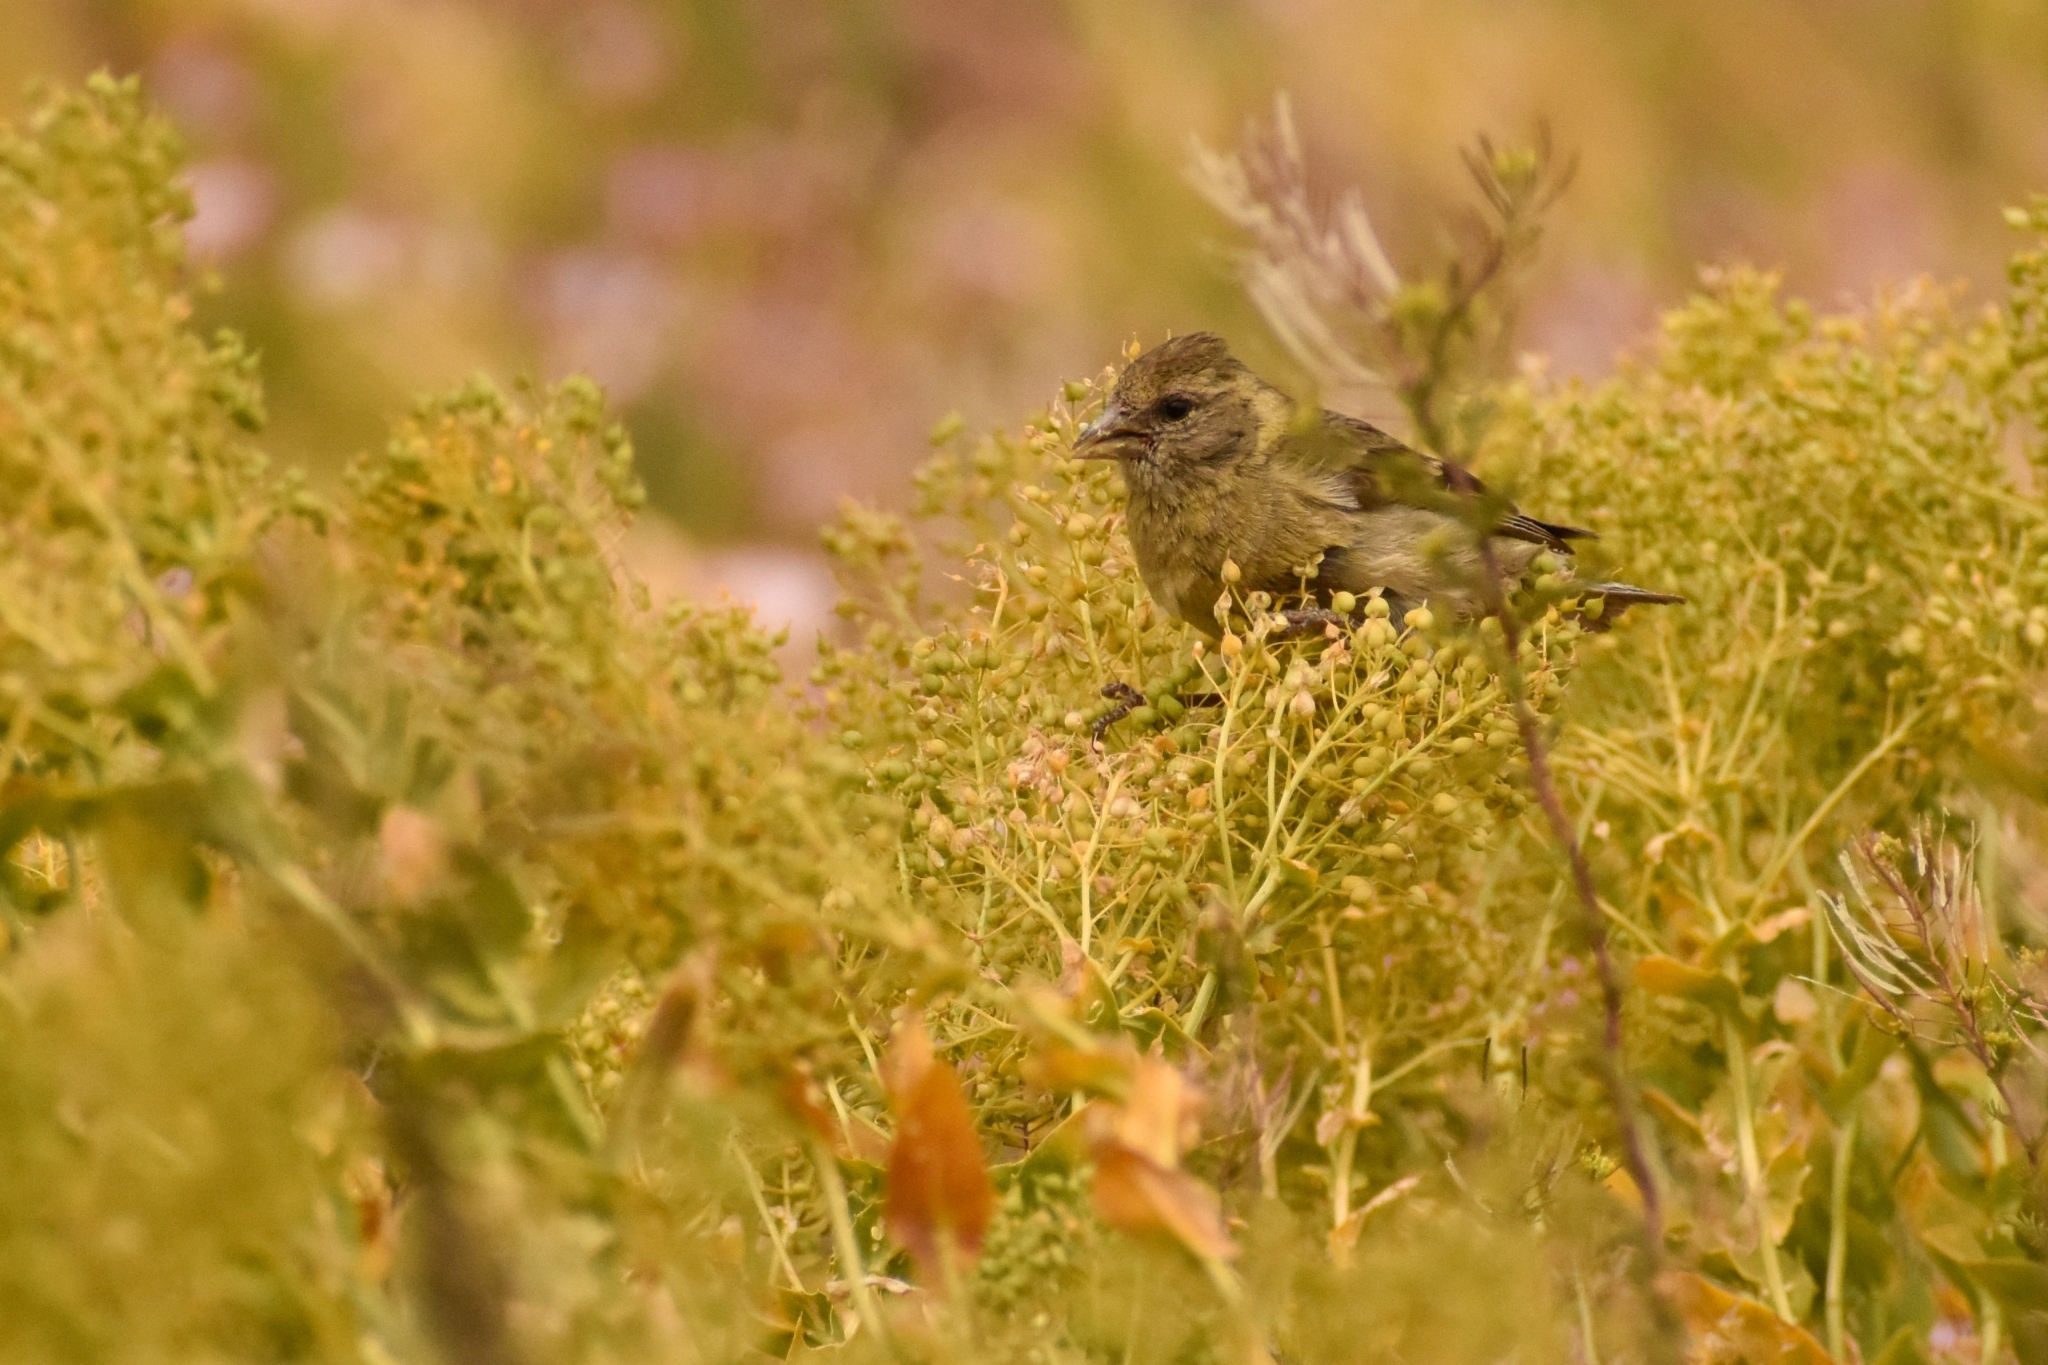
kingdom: Animalia
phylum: Chordata
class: Aves
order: Passeriformes
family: Fringillidae
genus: Spinus
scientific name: Spinus barbatus
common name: Black-chinned siskin
